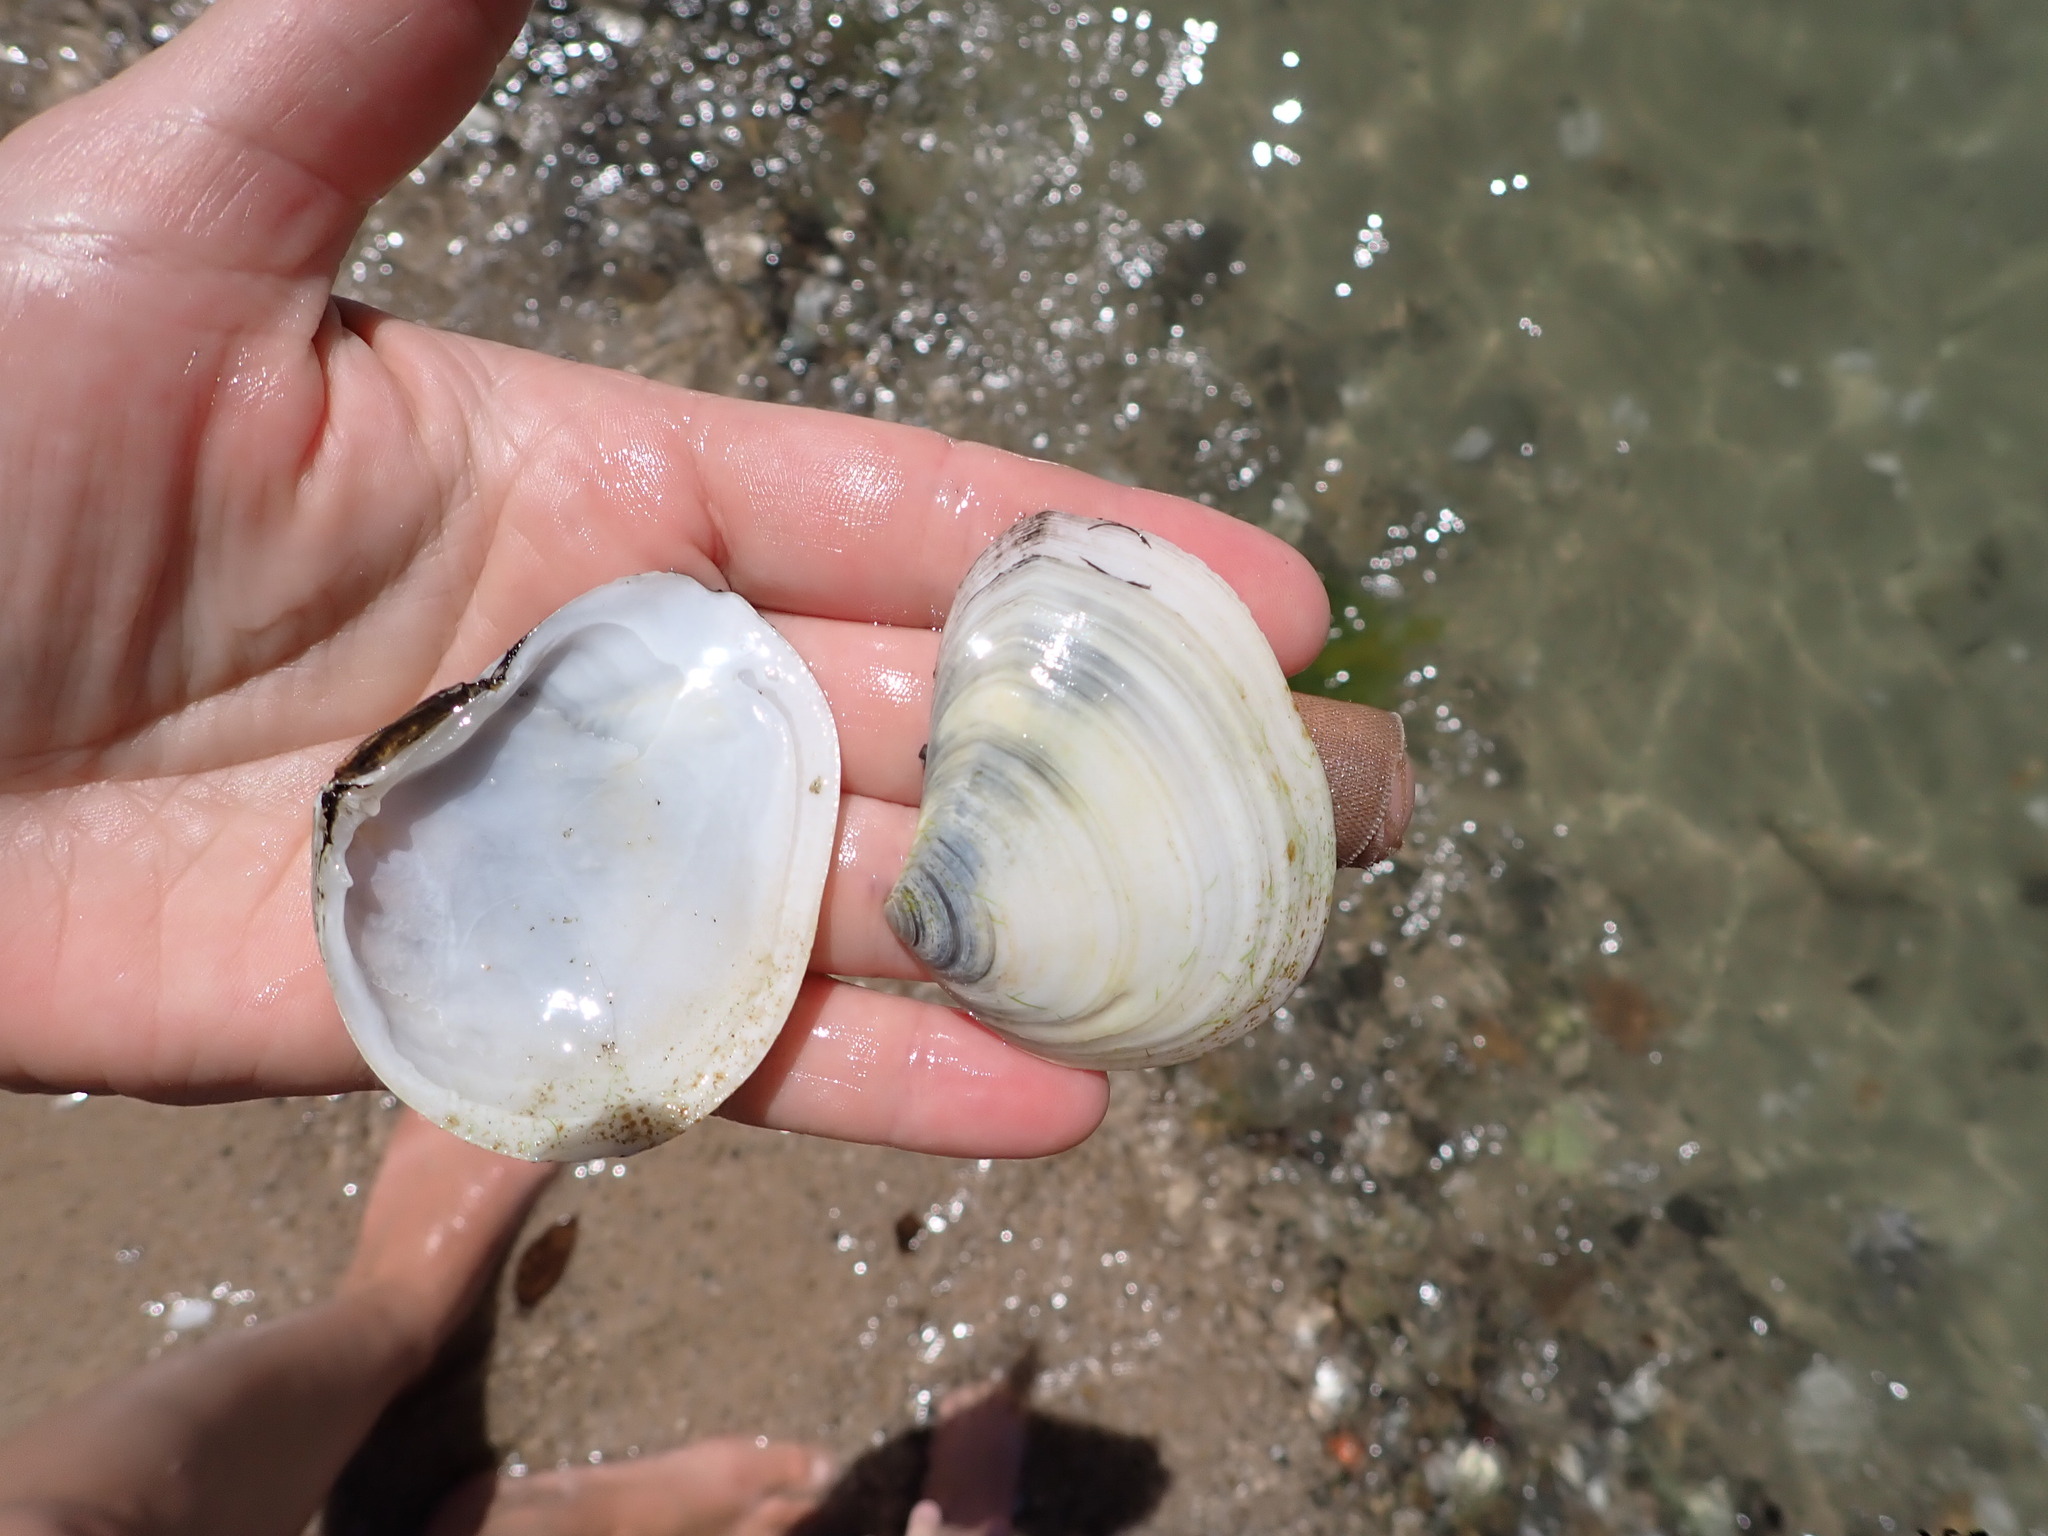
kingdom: Animalia
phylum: Mollusca
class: Bivalvia
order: Cardiida
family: Tellinidae
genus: Macomona
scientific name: Macomona liliana
